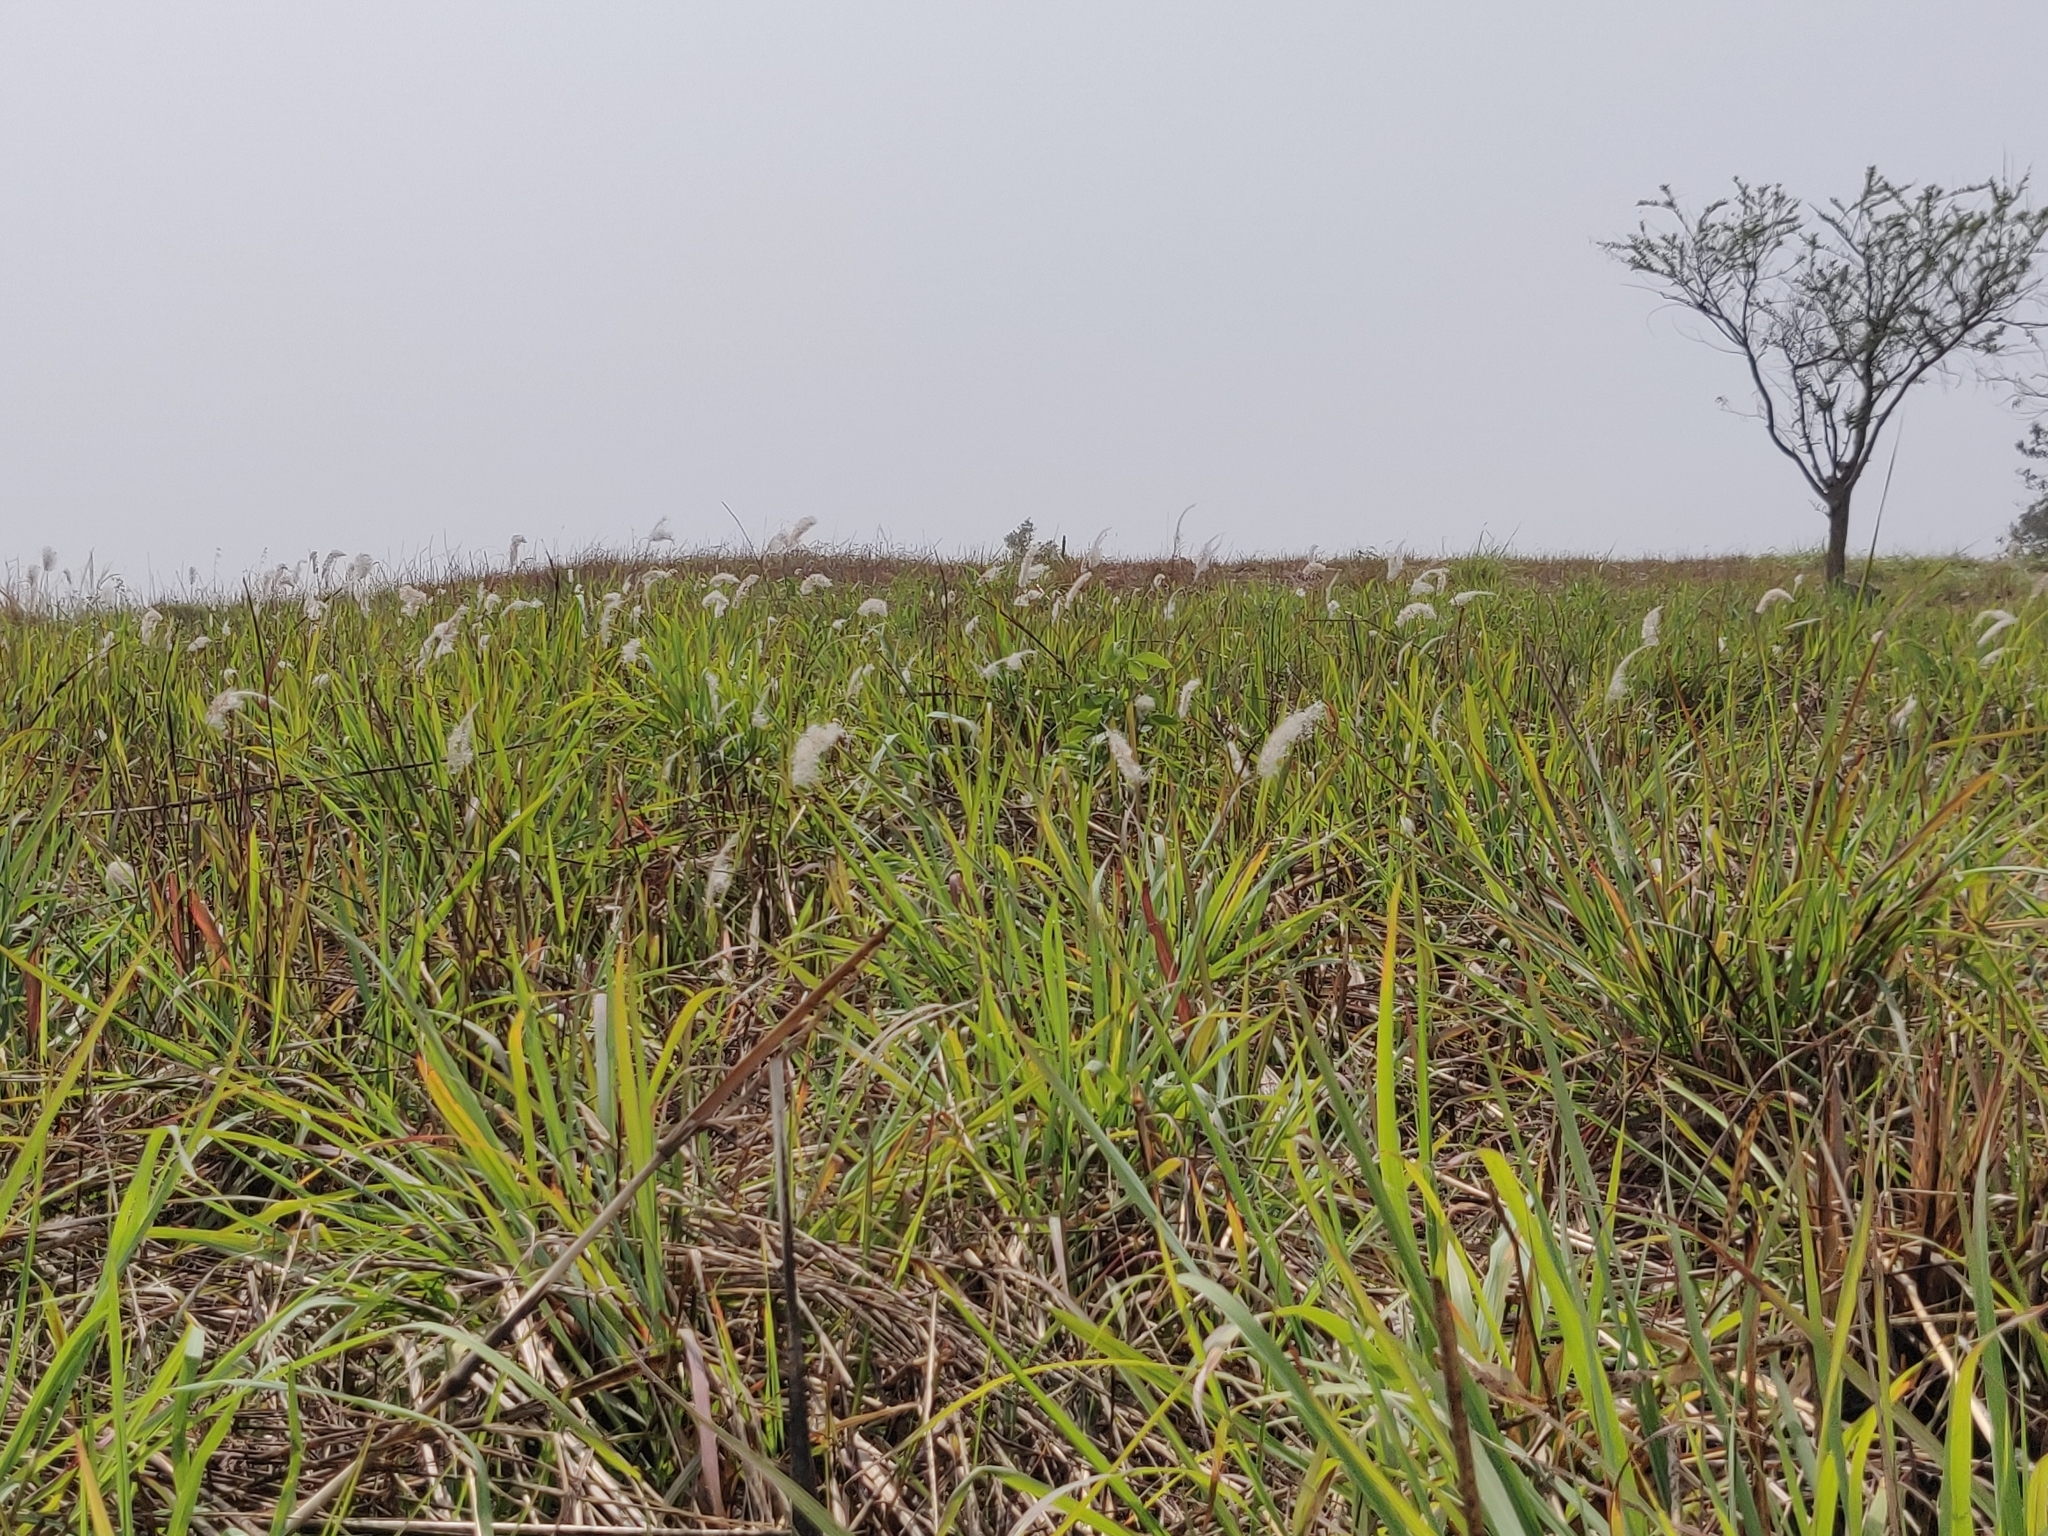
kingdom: Plantae
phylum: Tracheophyta
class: Liliopsida
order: Poales
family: Poaceae
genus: Imperata
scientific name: Imperata cylindrica
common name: Cogongrass
